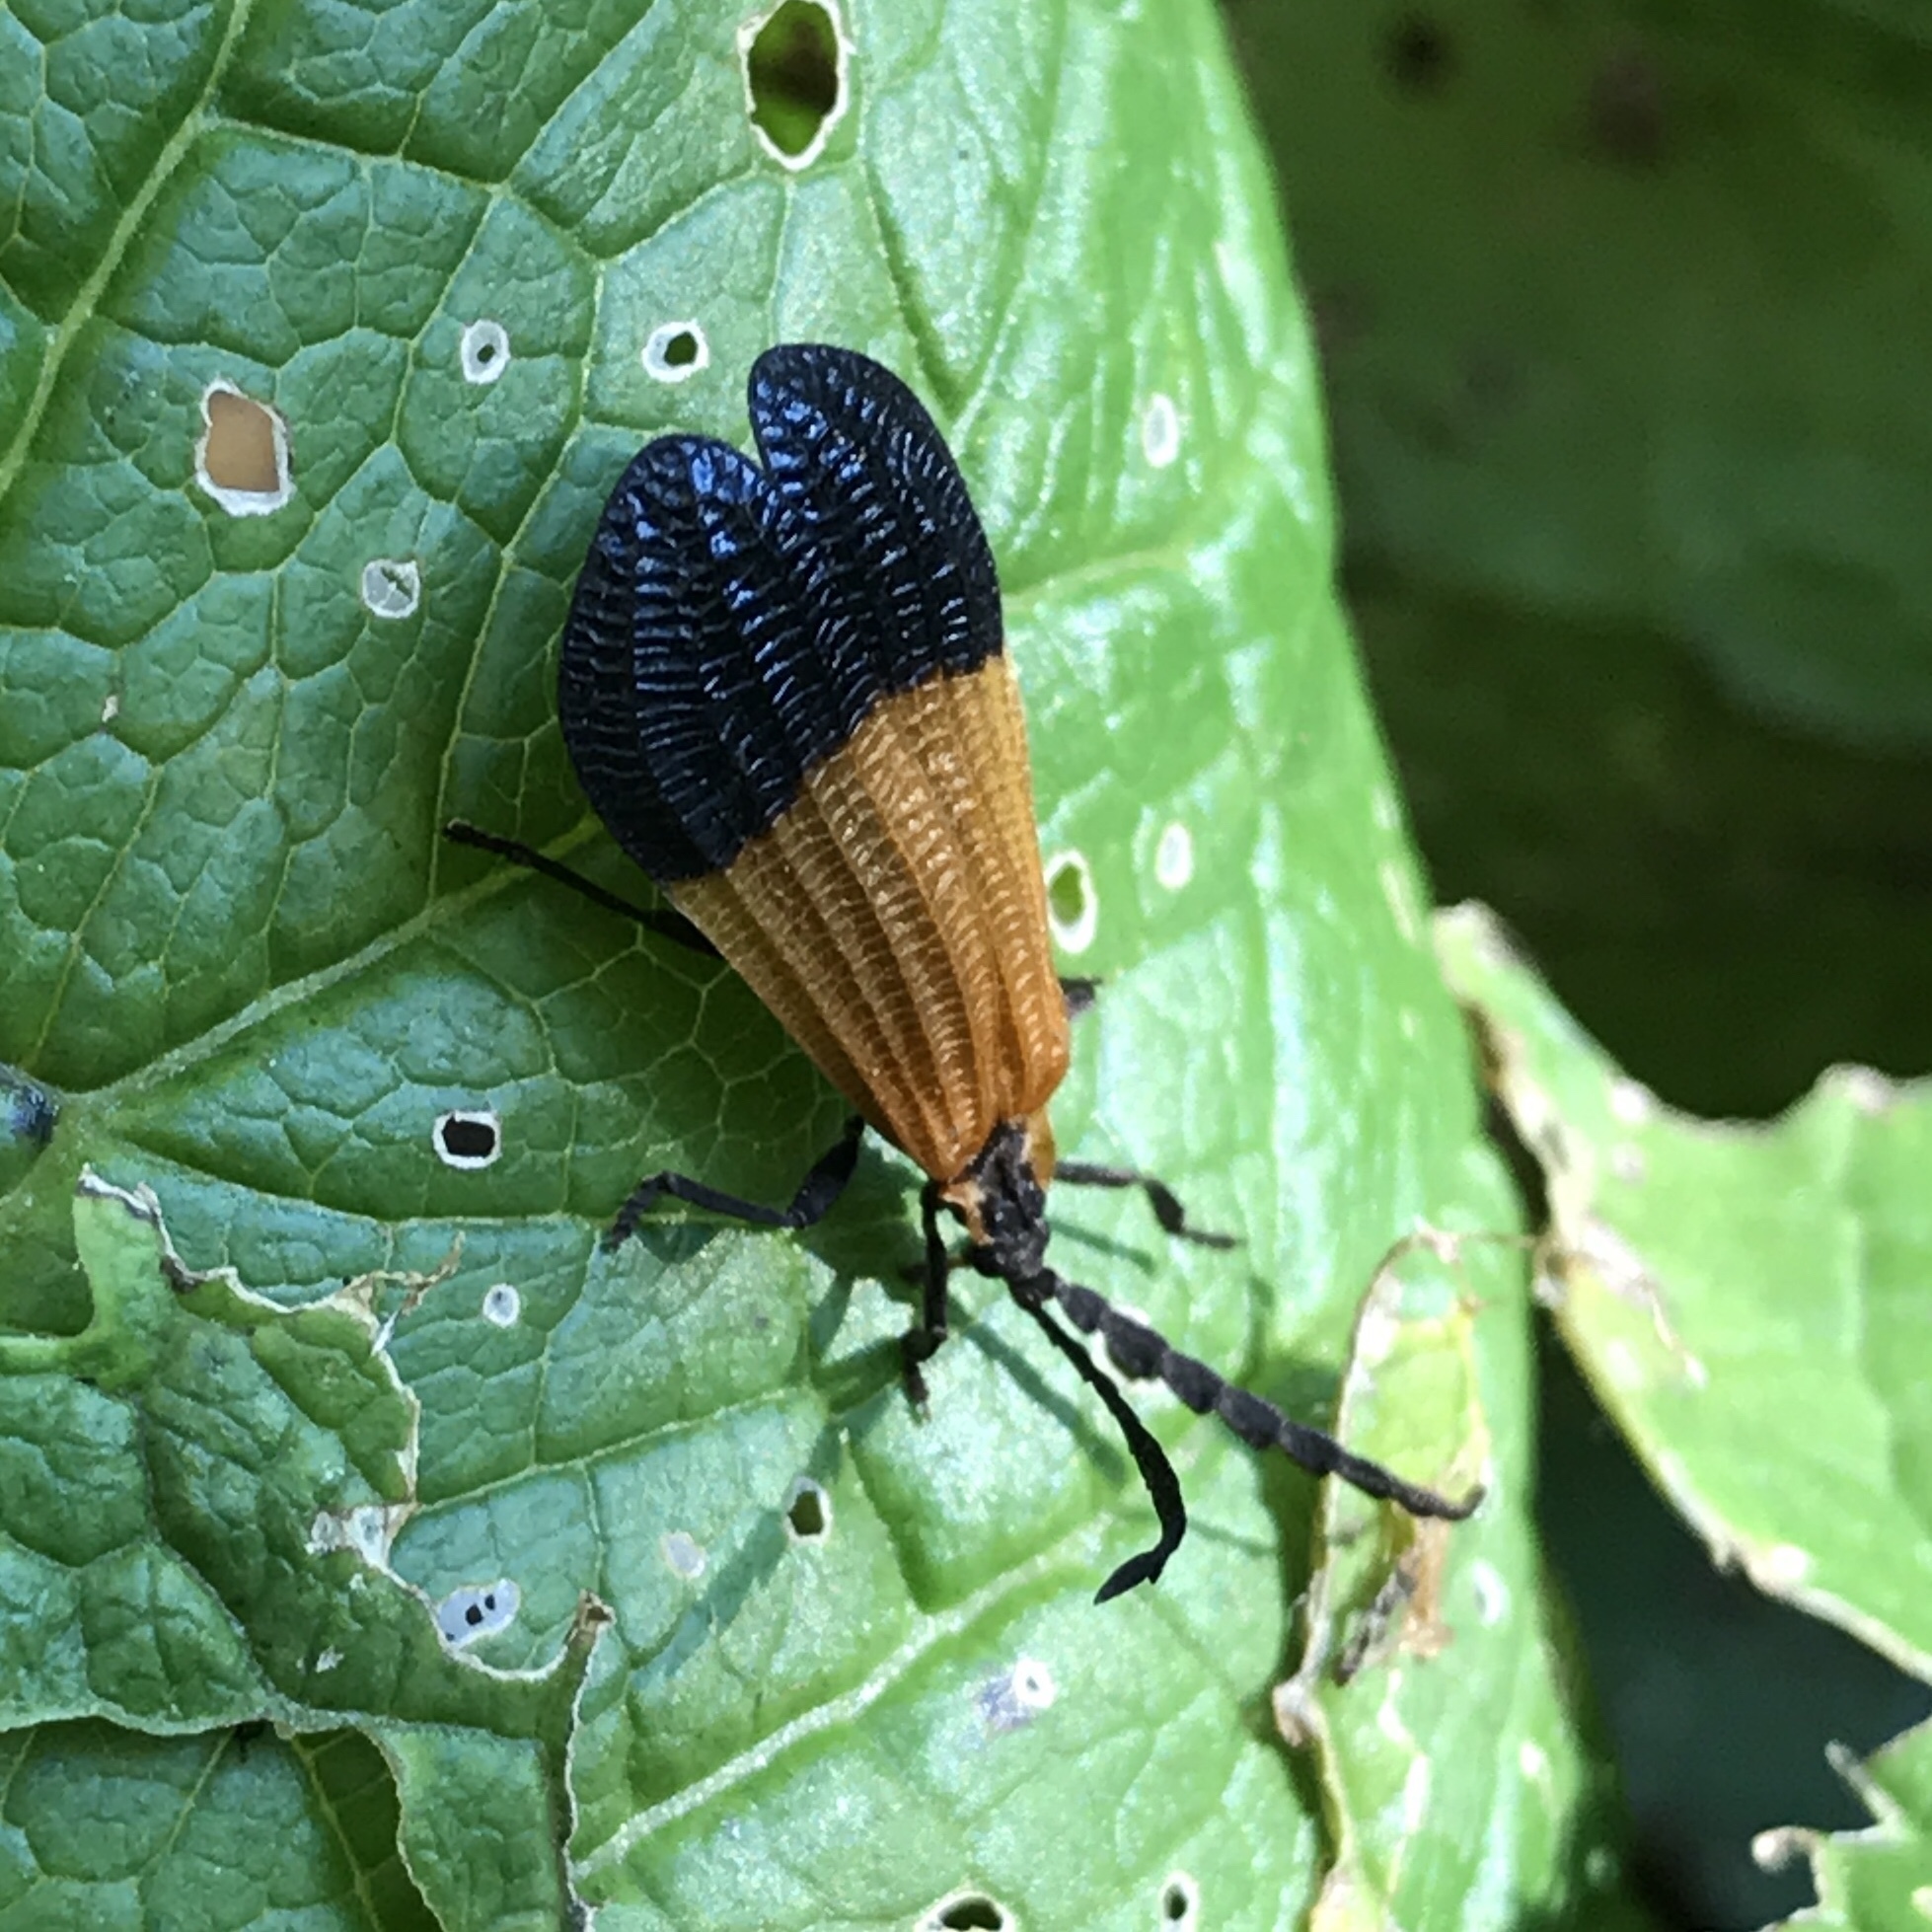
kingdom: Animalia
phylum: Arthropoda
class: Insecta
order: Coleoptera
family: Lycidae
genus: Calopteron
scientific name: Calopteron terminale
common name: End band net-winged beetle
